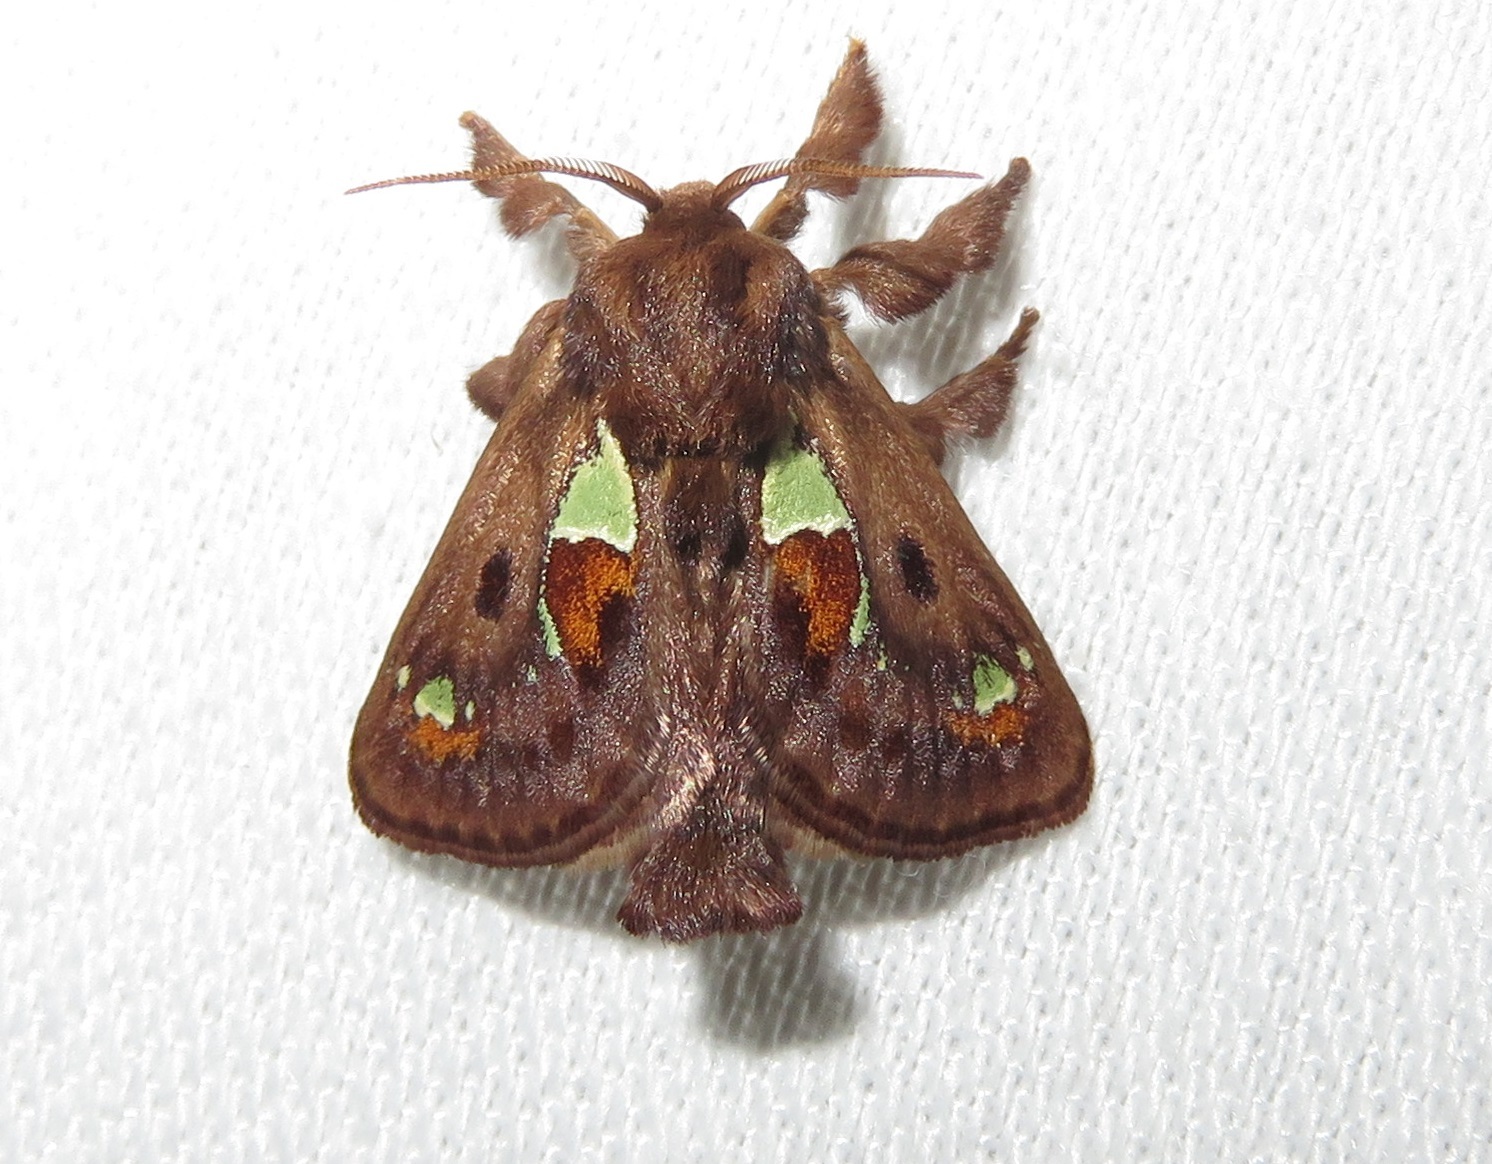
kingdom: Animalia
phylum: Arthropoda
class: Insecta
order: Lepidoptera
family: Limacodidae
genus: Euclea
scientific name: Euclea delphinii
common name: Spiny oak-slug moth
